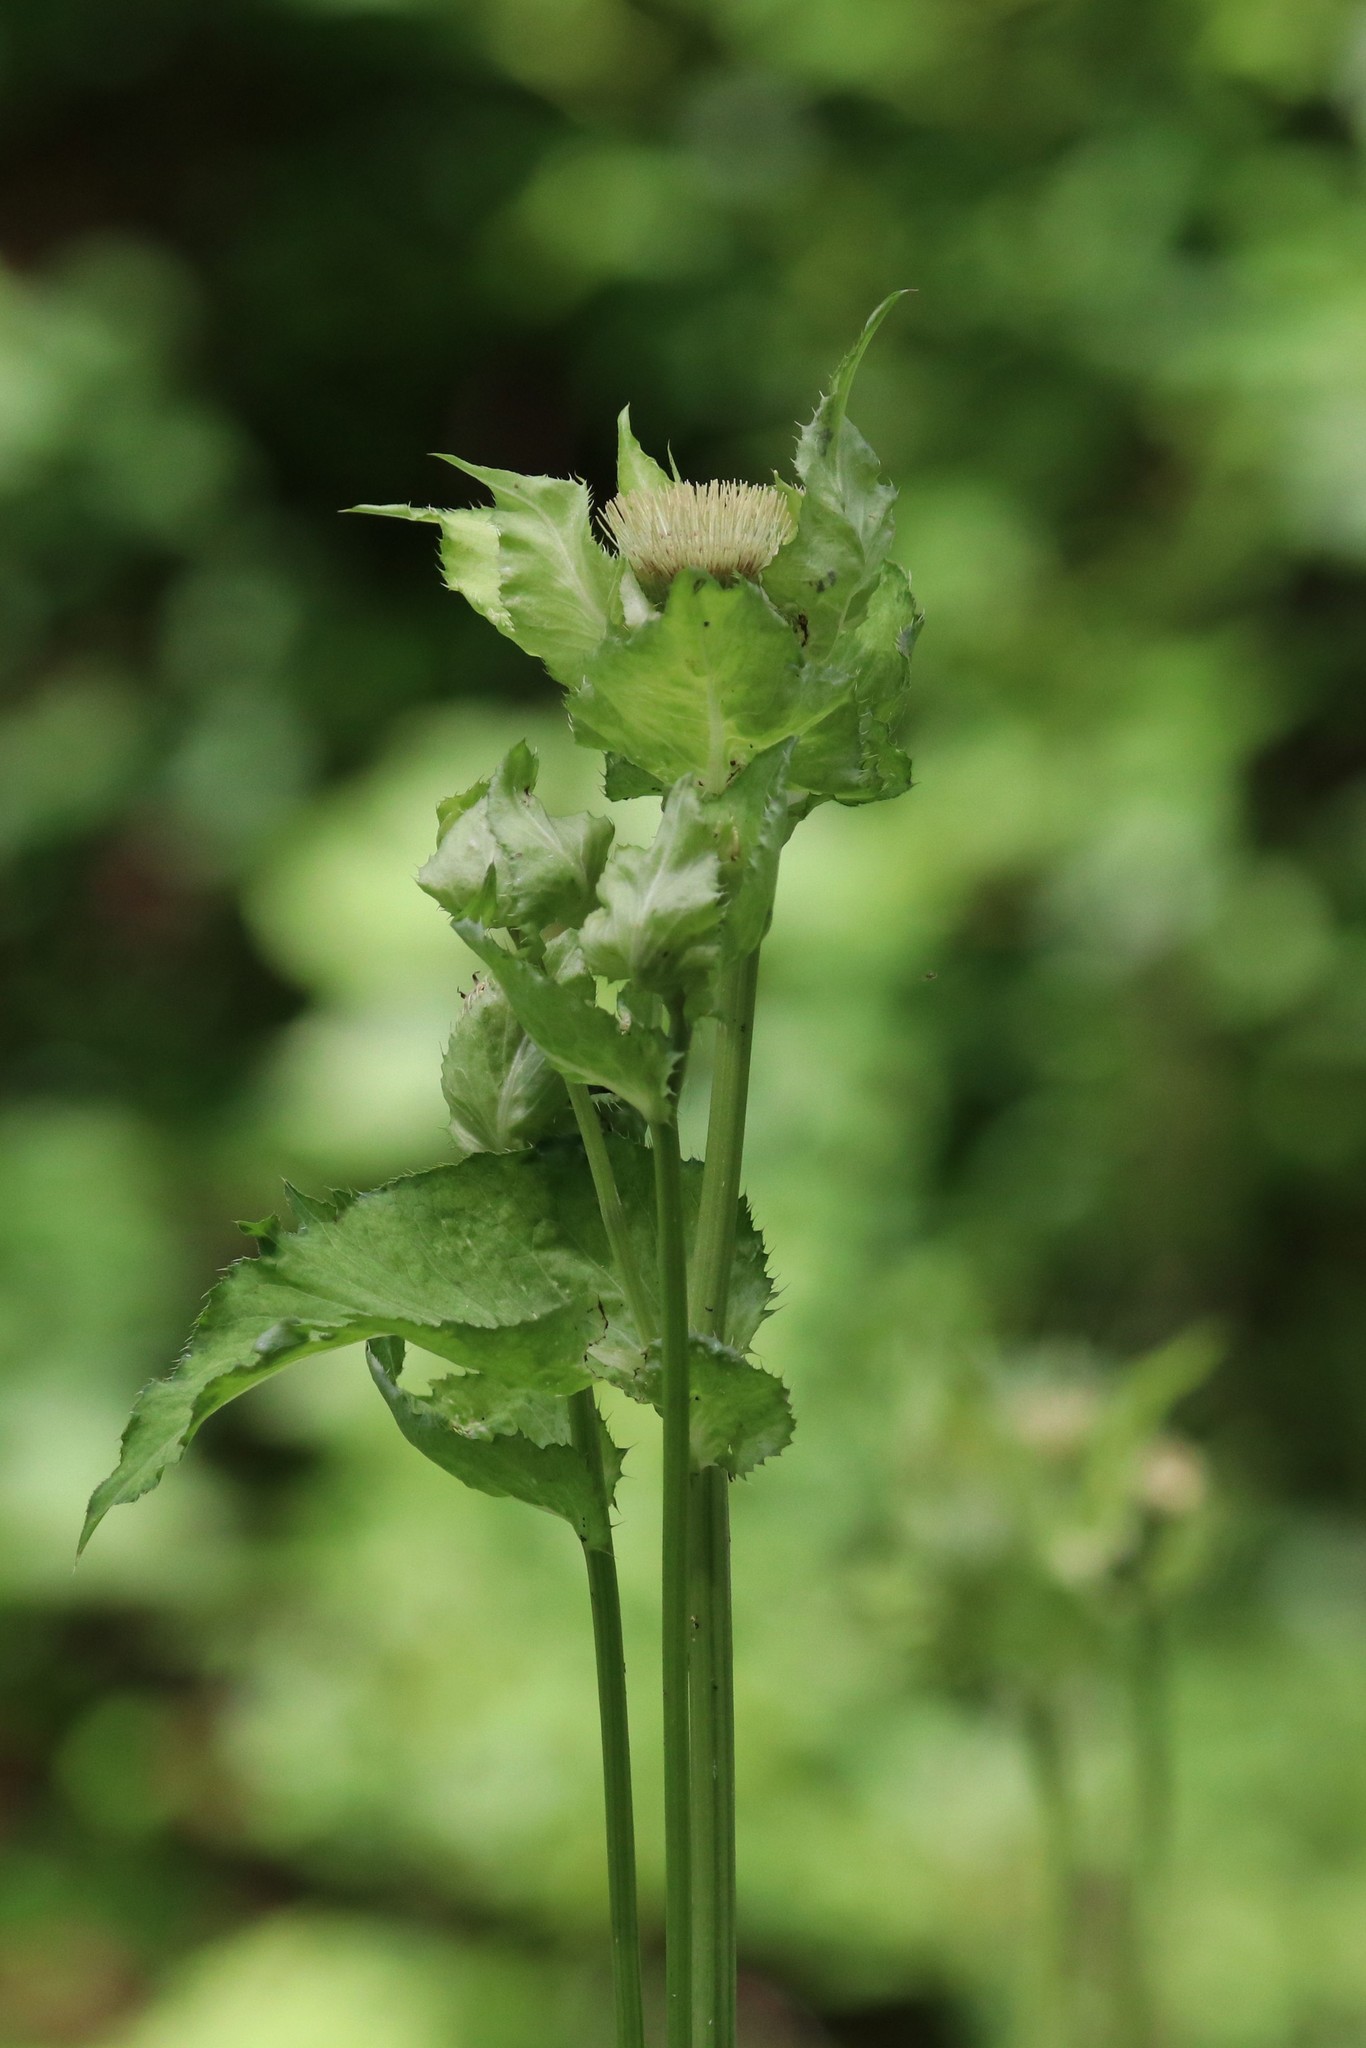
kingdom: Plantae
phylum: Tracheophyta
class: Magnoliopsida
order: Asterales
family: Asteraceae
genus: Cirsium
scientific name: Cirsium oleraceum
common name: Cabbage thistle
